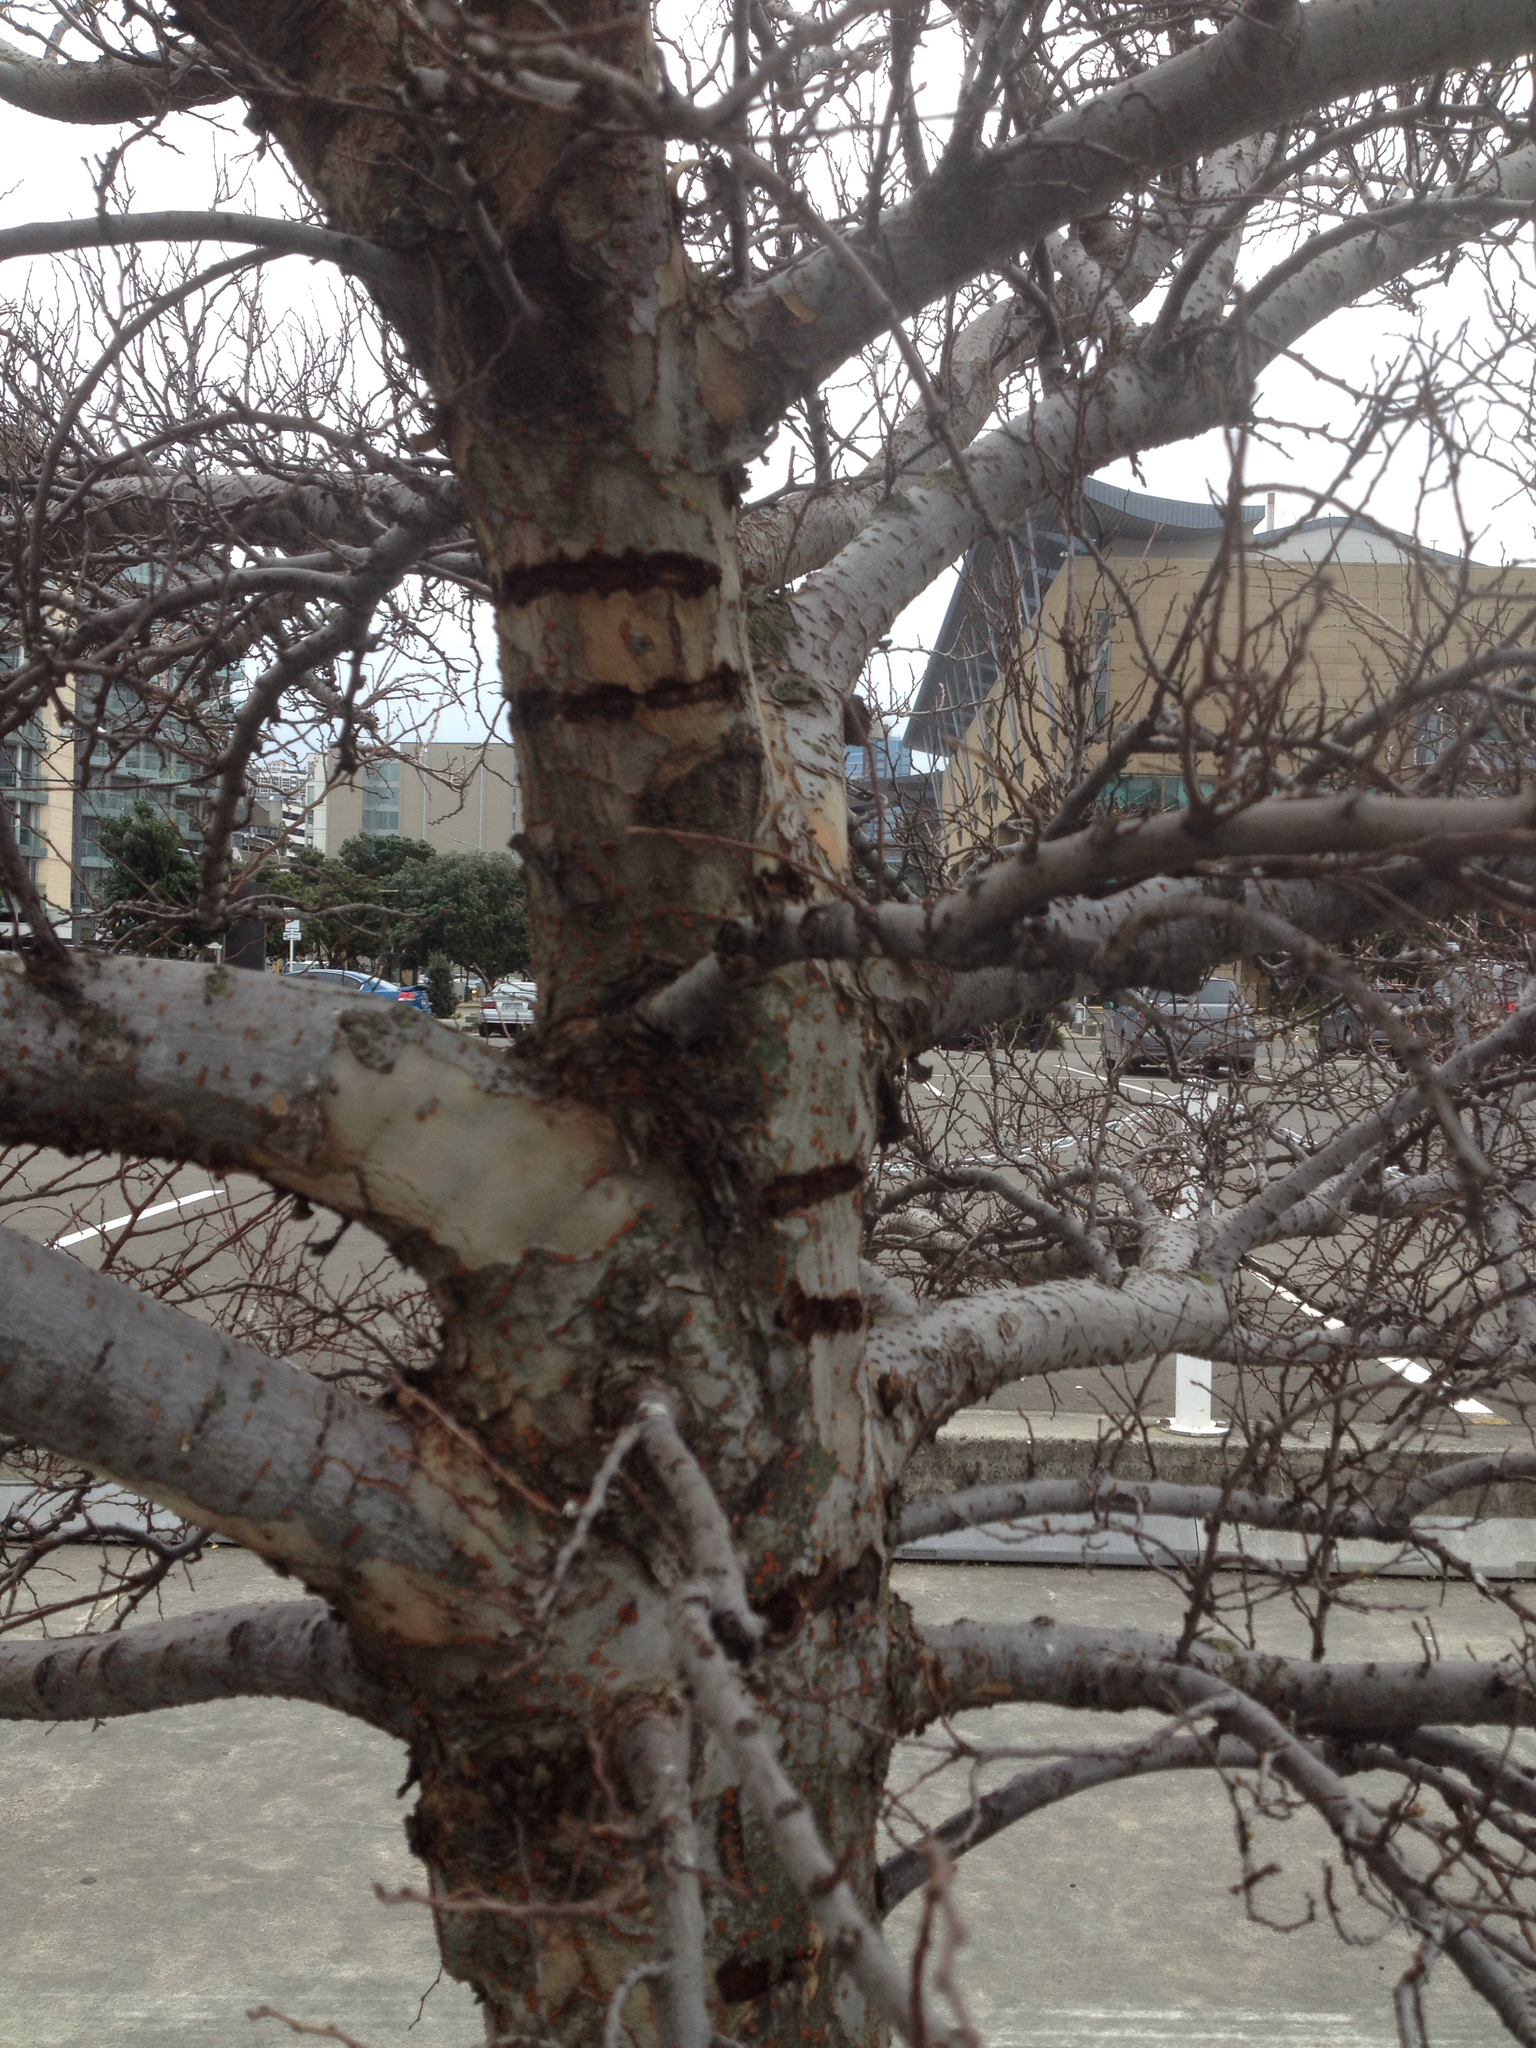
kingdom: Animalia
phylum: Chordata
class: Aves
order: Psittaciformes
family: Psittacidae
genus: Nestor
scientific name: Nestor meridionalis
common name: New zealand kaka
